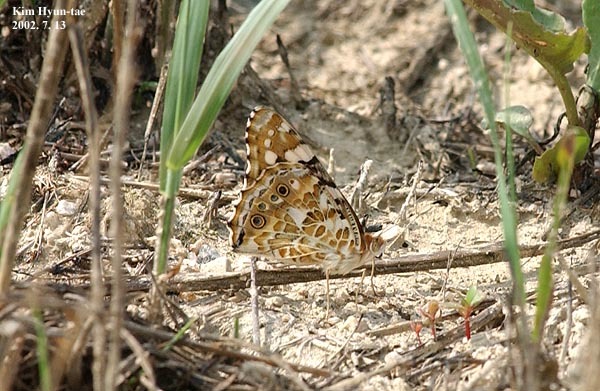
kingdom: Animalia
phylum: Arthropoda
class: Insecta
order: Lepidoptera
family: Nymphalidae
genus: Vanessa
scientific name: Vanessa cardui
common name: Painted lady
